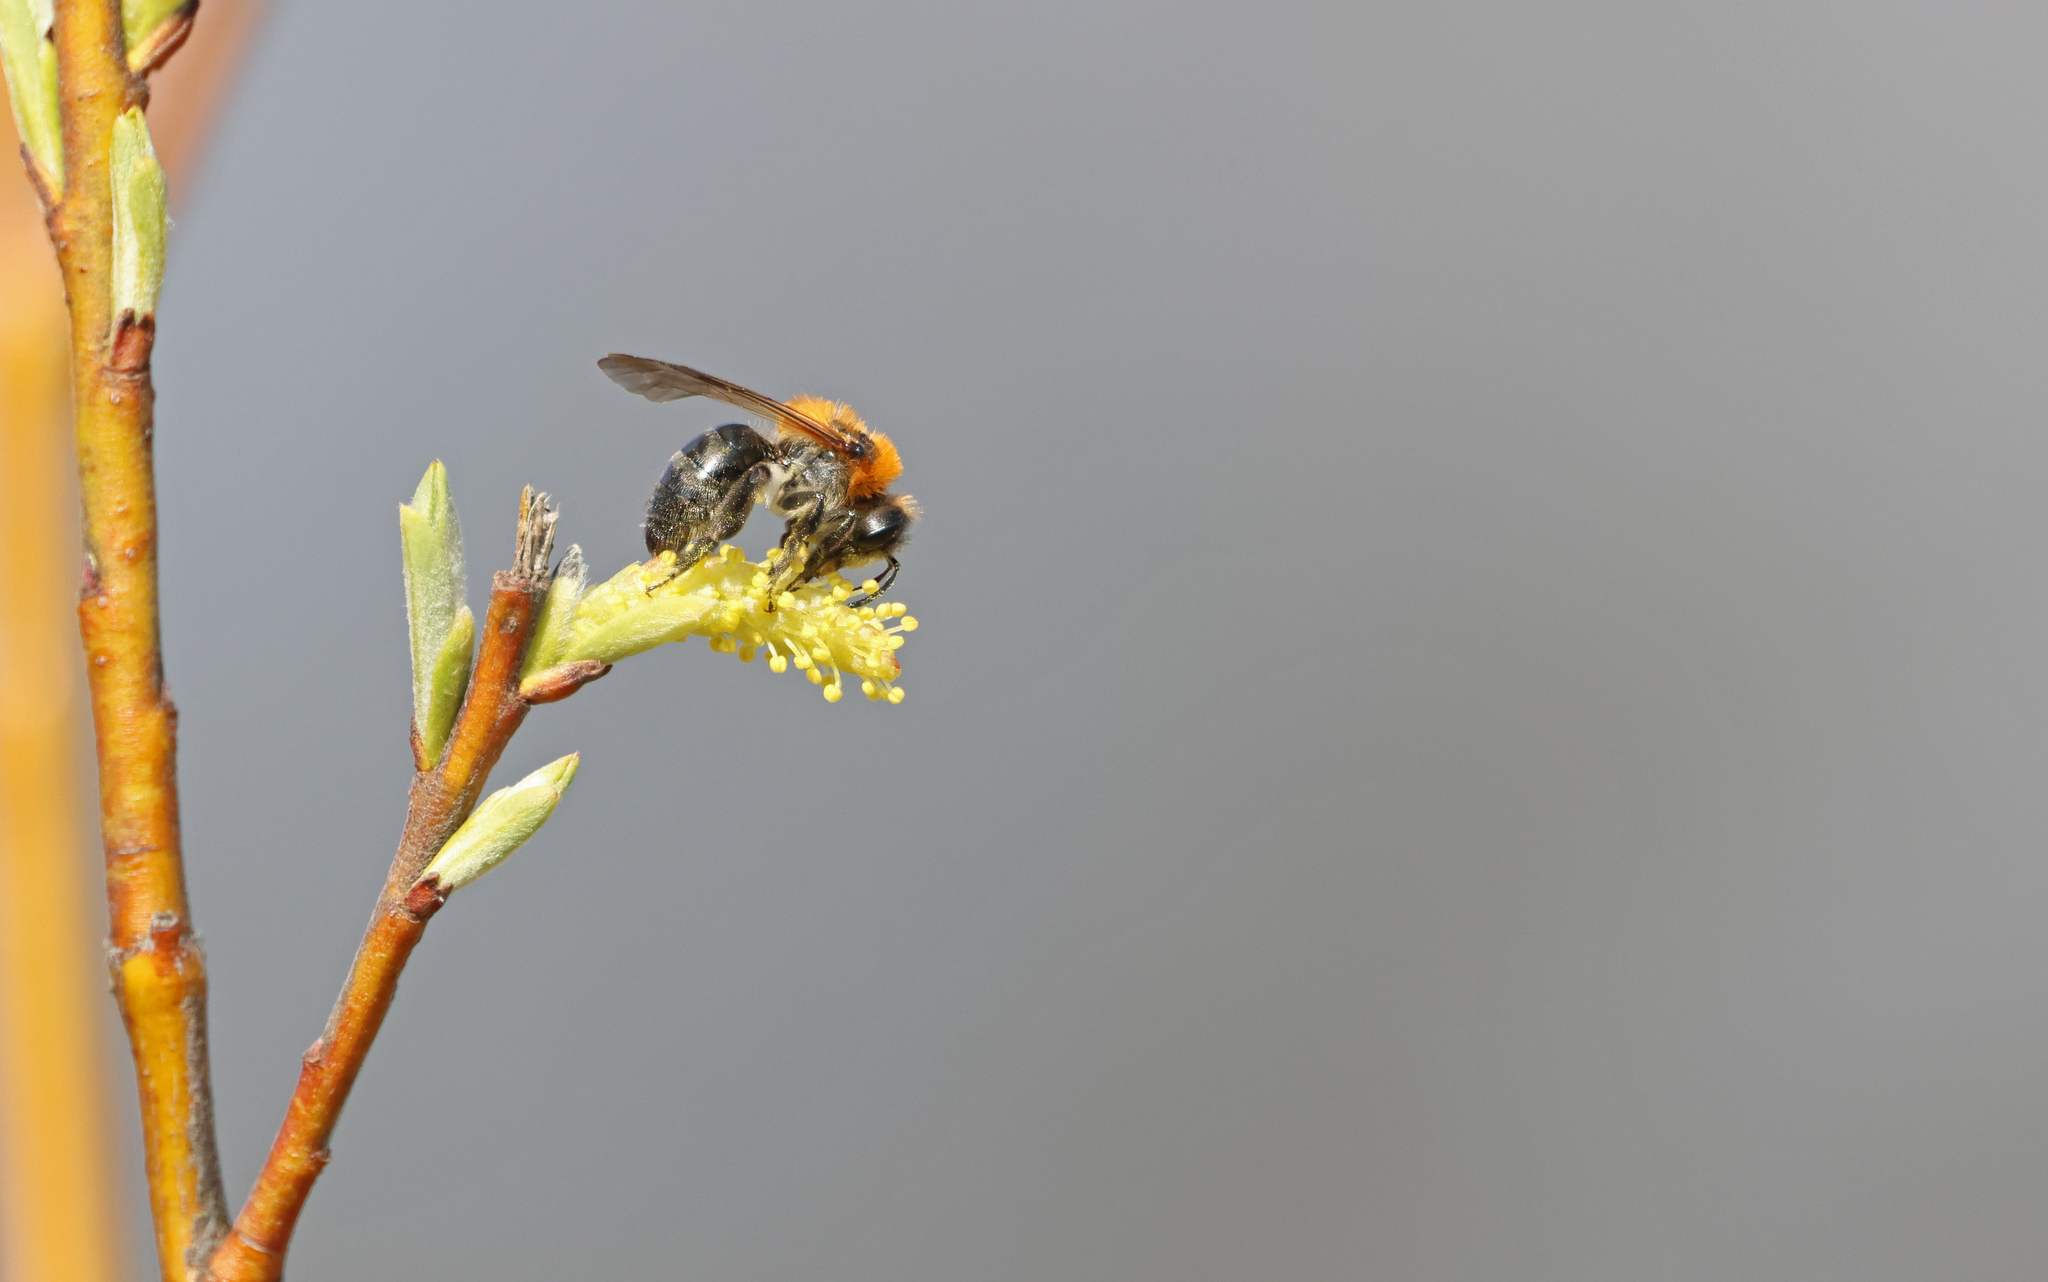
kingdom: Animalia
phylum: Arthropoda
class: Insecta
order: Hymenoptera
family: Andrenidae
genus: Andrena
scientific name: Andrena nitida
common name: Grey-patched mining bee
